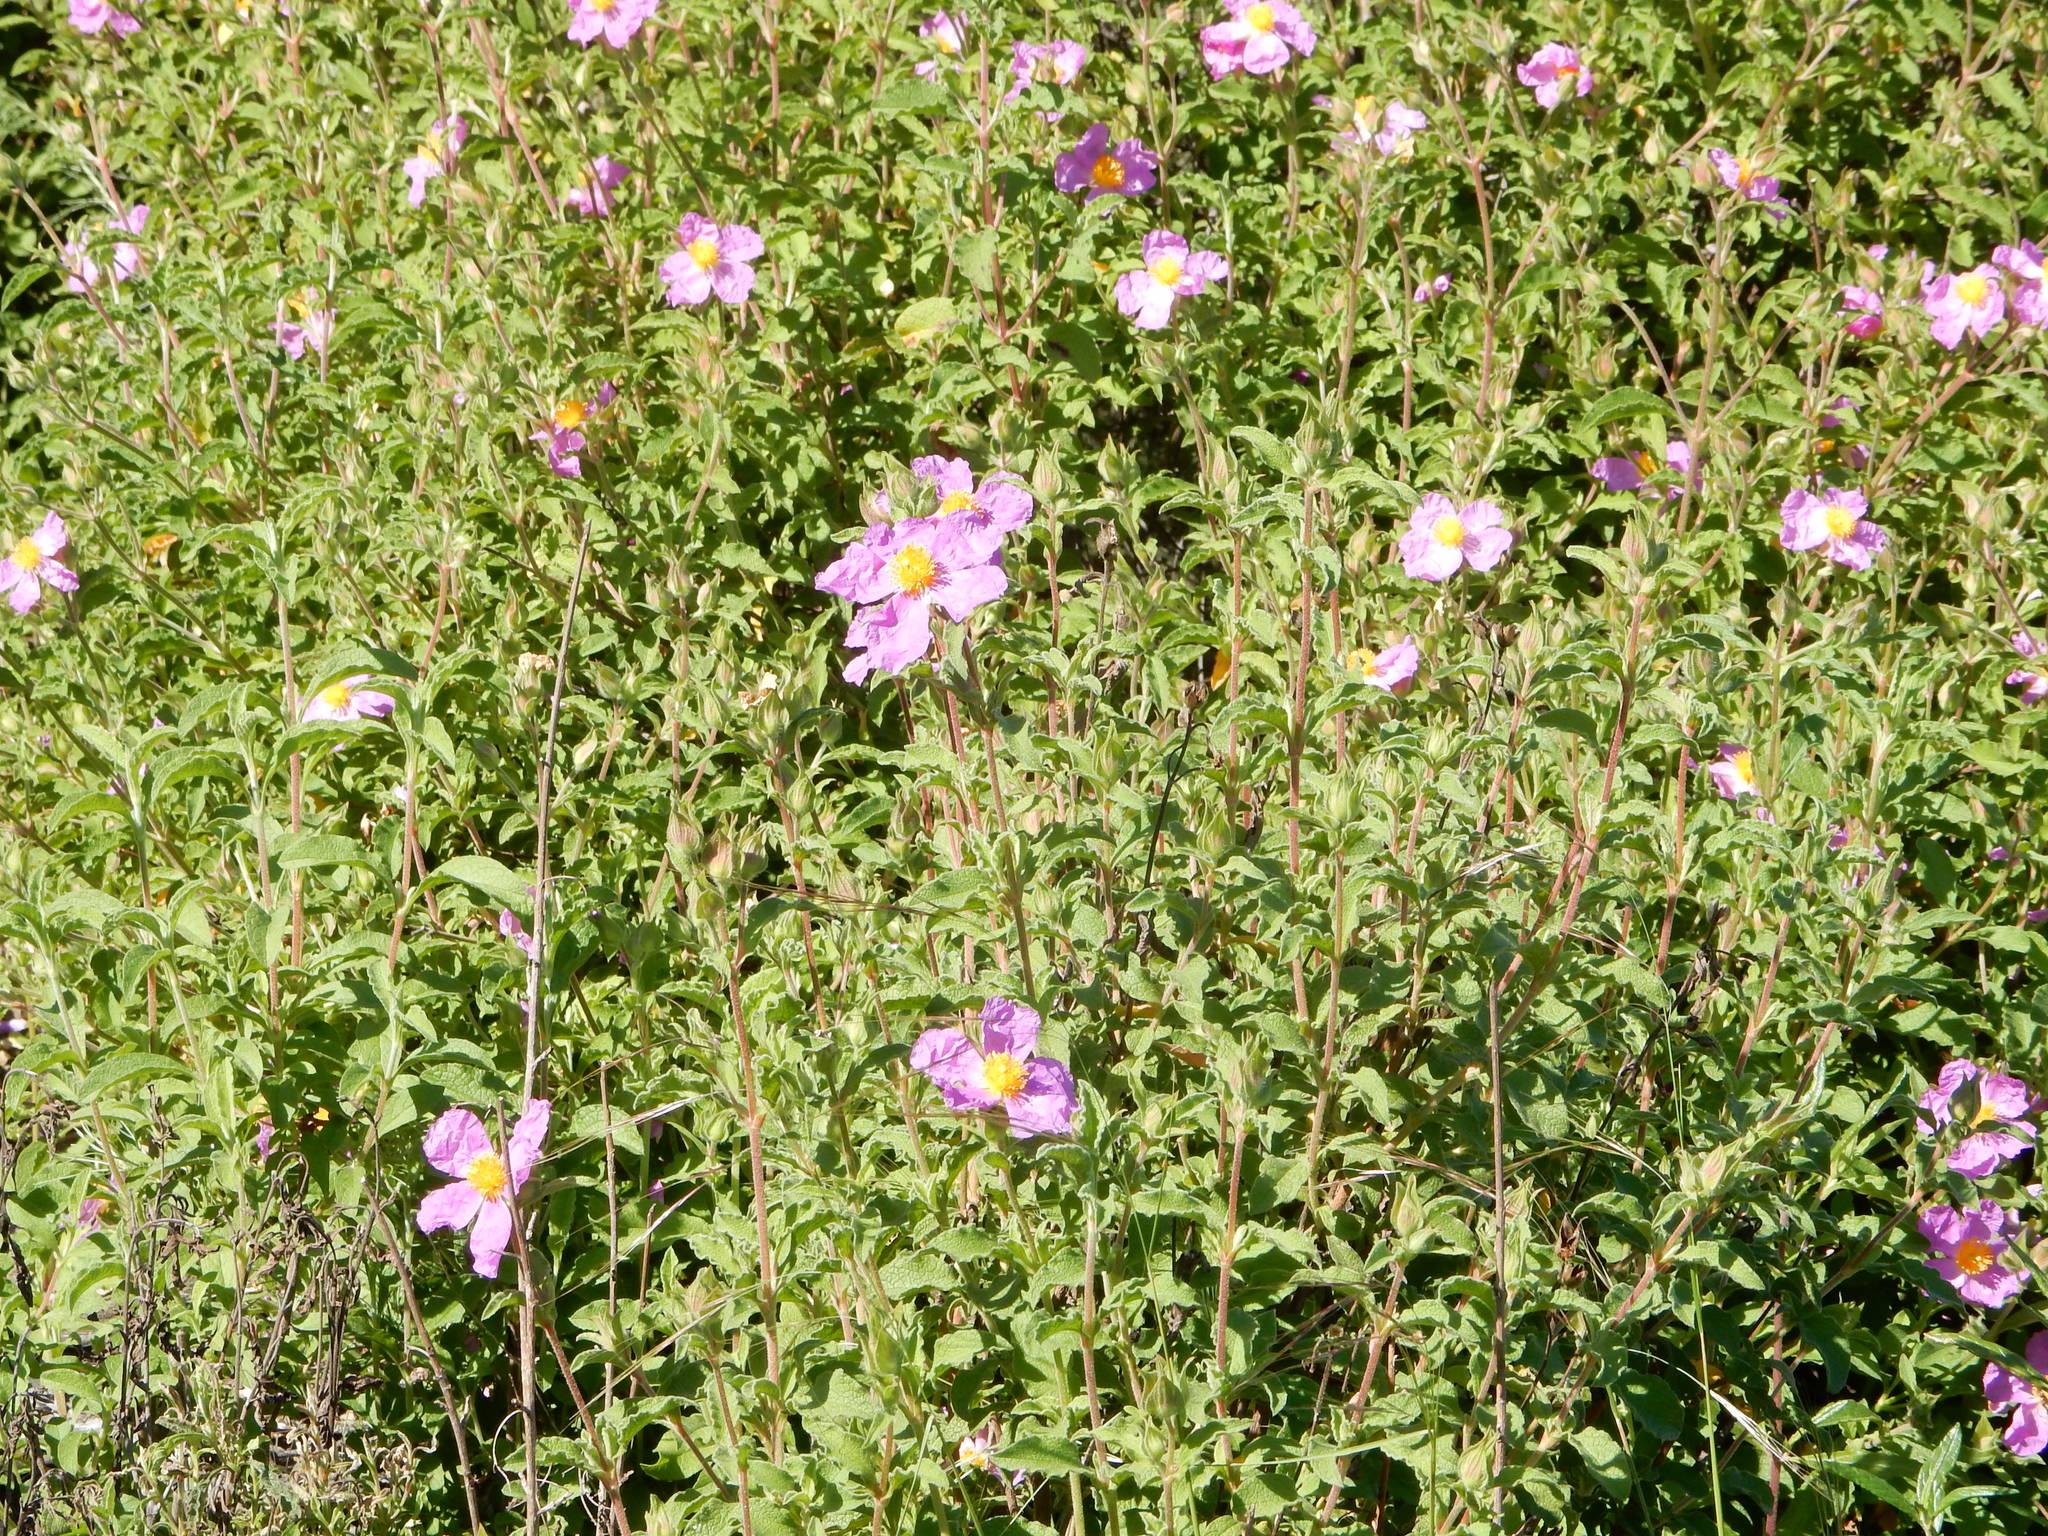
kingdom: Plantae
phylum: Tracheophyta
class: Magnoliopsida
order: Malvales
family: Cistaceae
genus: Cistus
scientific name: Cistus creticus
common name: Cretan rockrose
